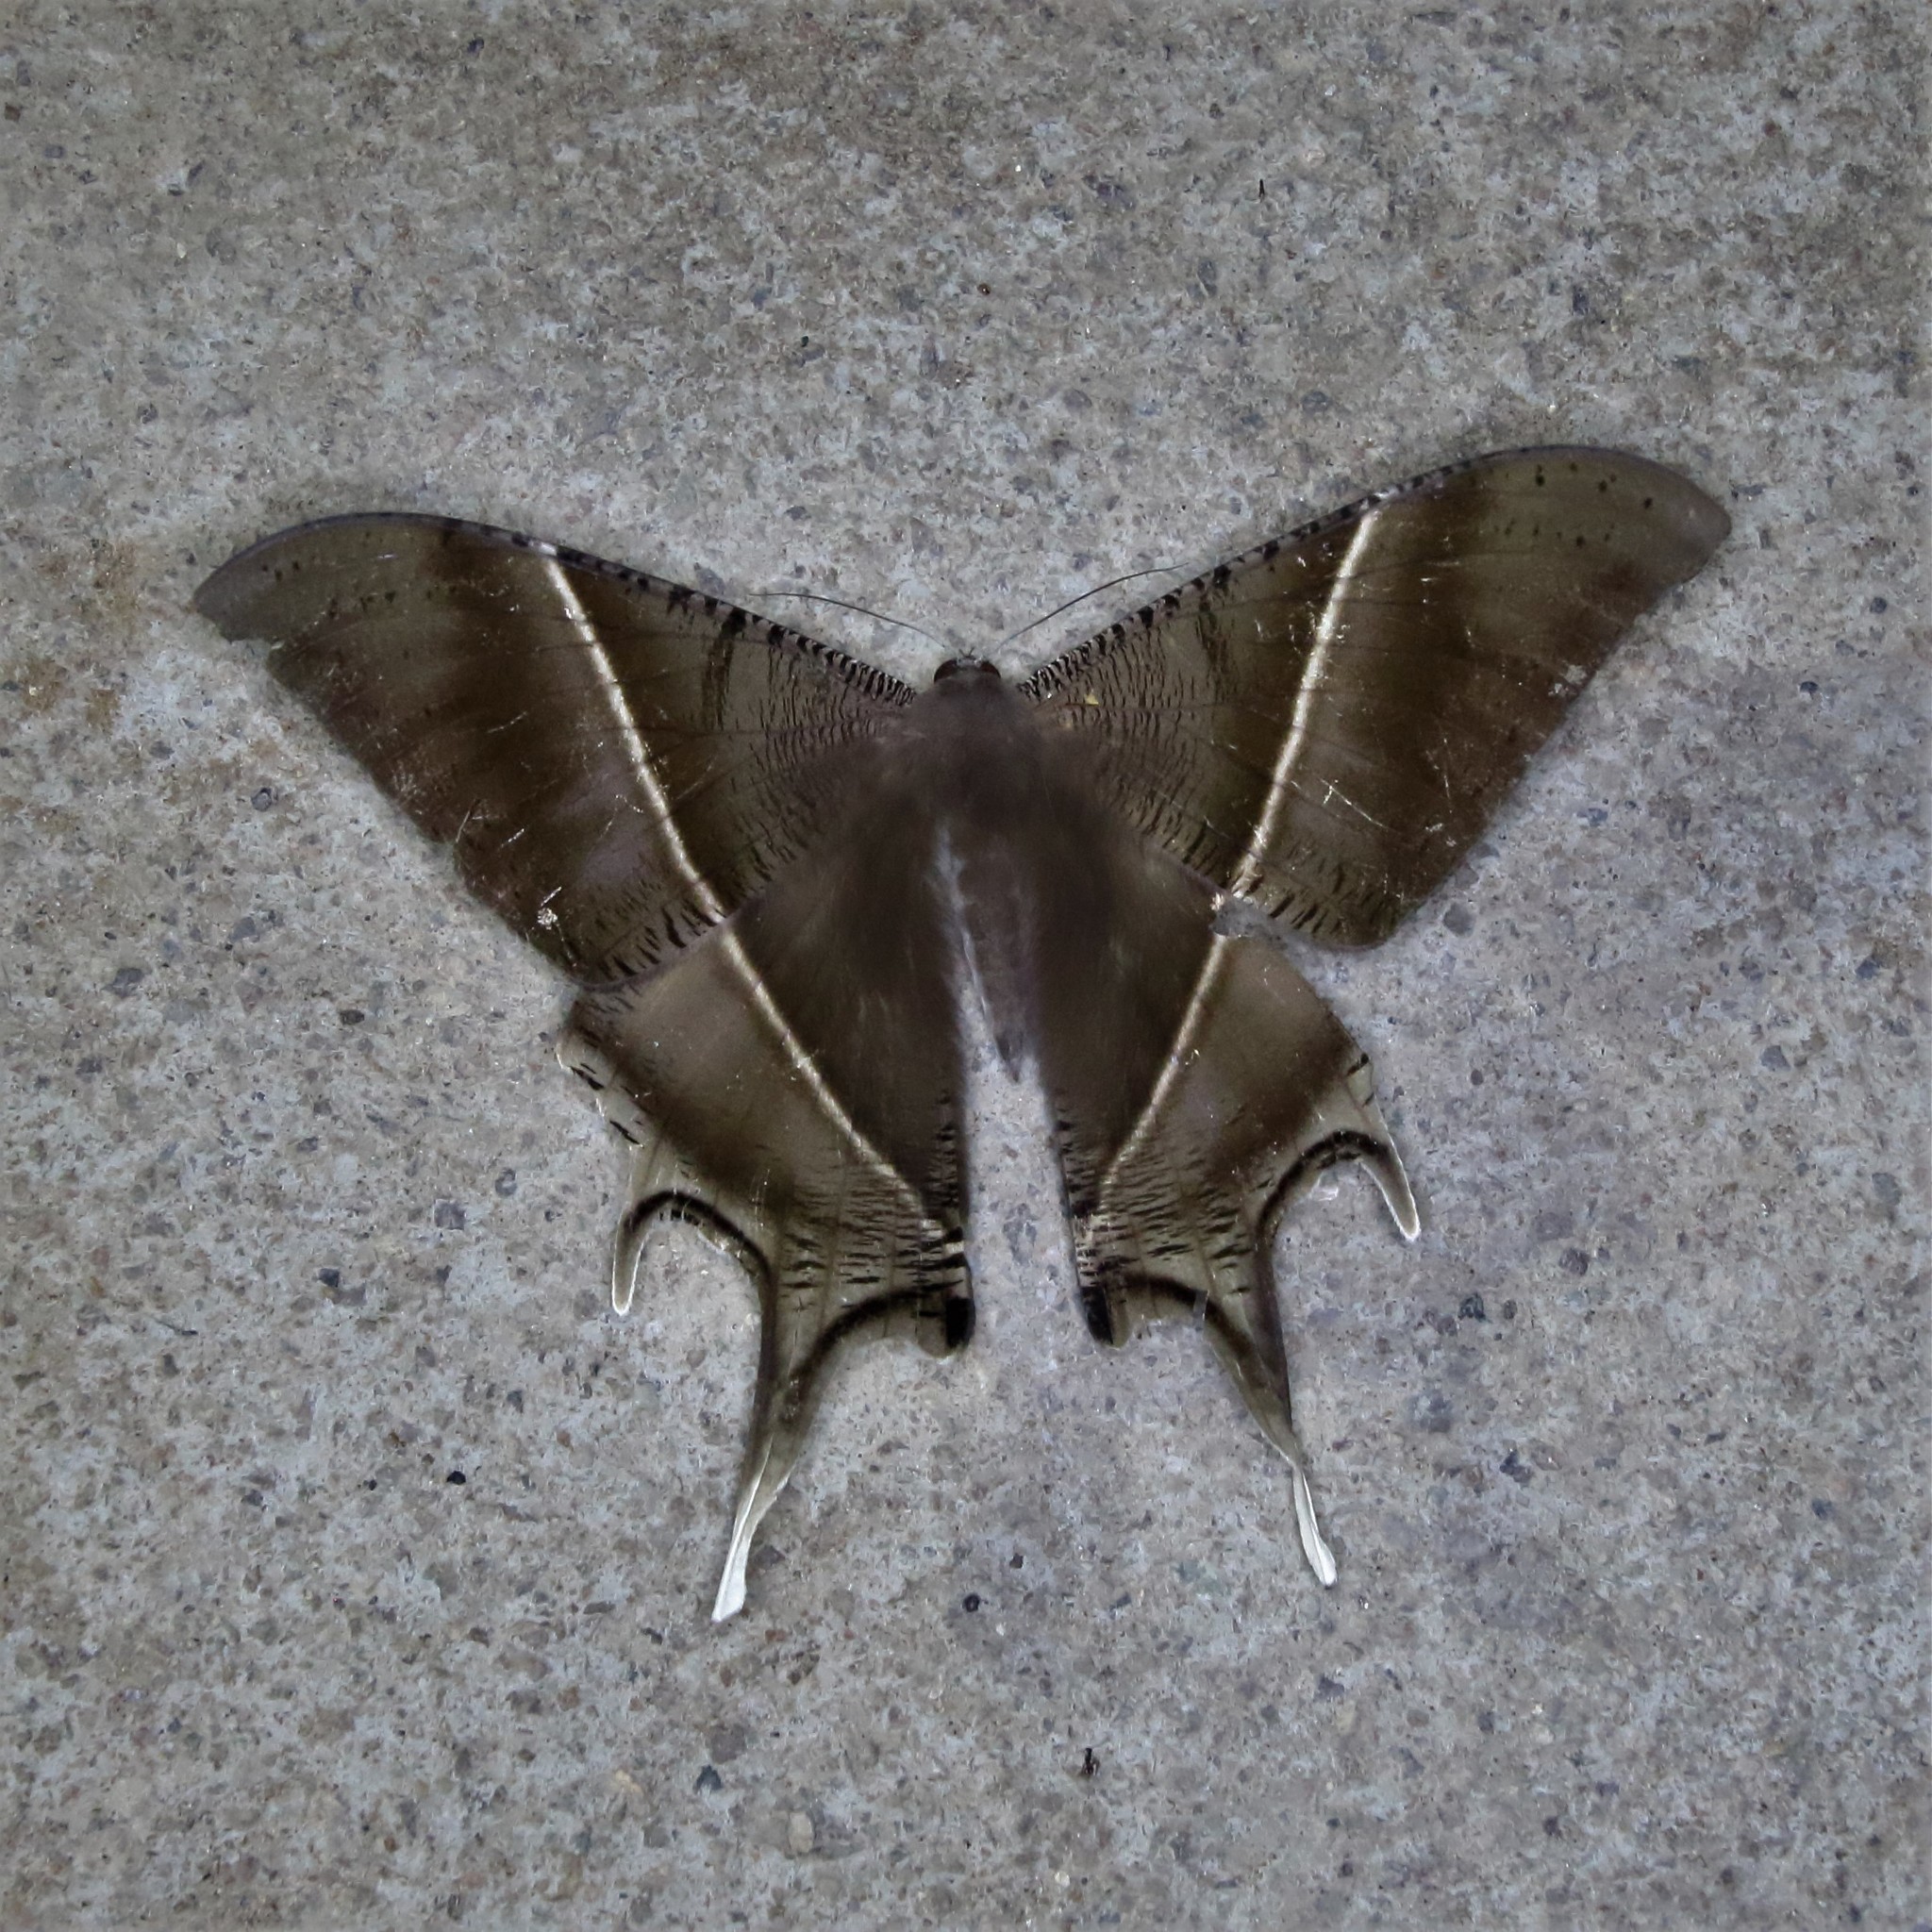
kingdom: Animalia
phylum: Arthropoda
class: Insecta
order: Lepidoptera
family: Uraniidae
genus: Lyssa
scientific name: Lyssa zampa
